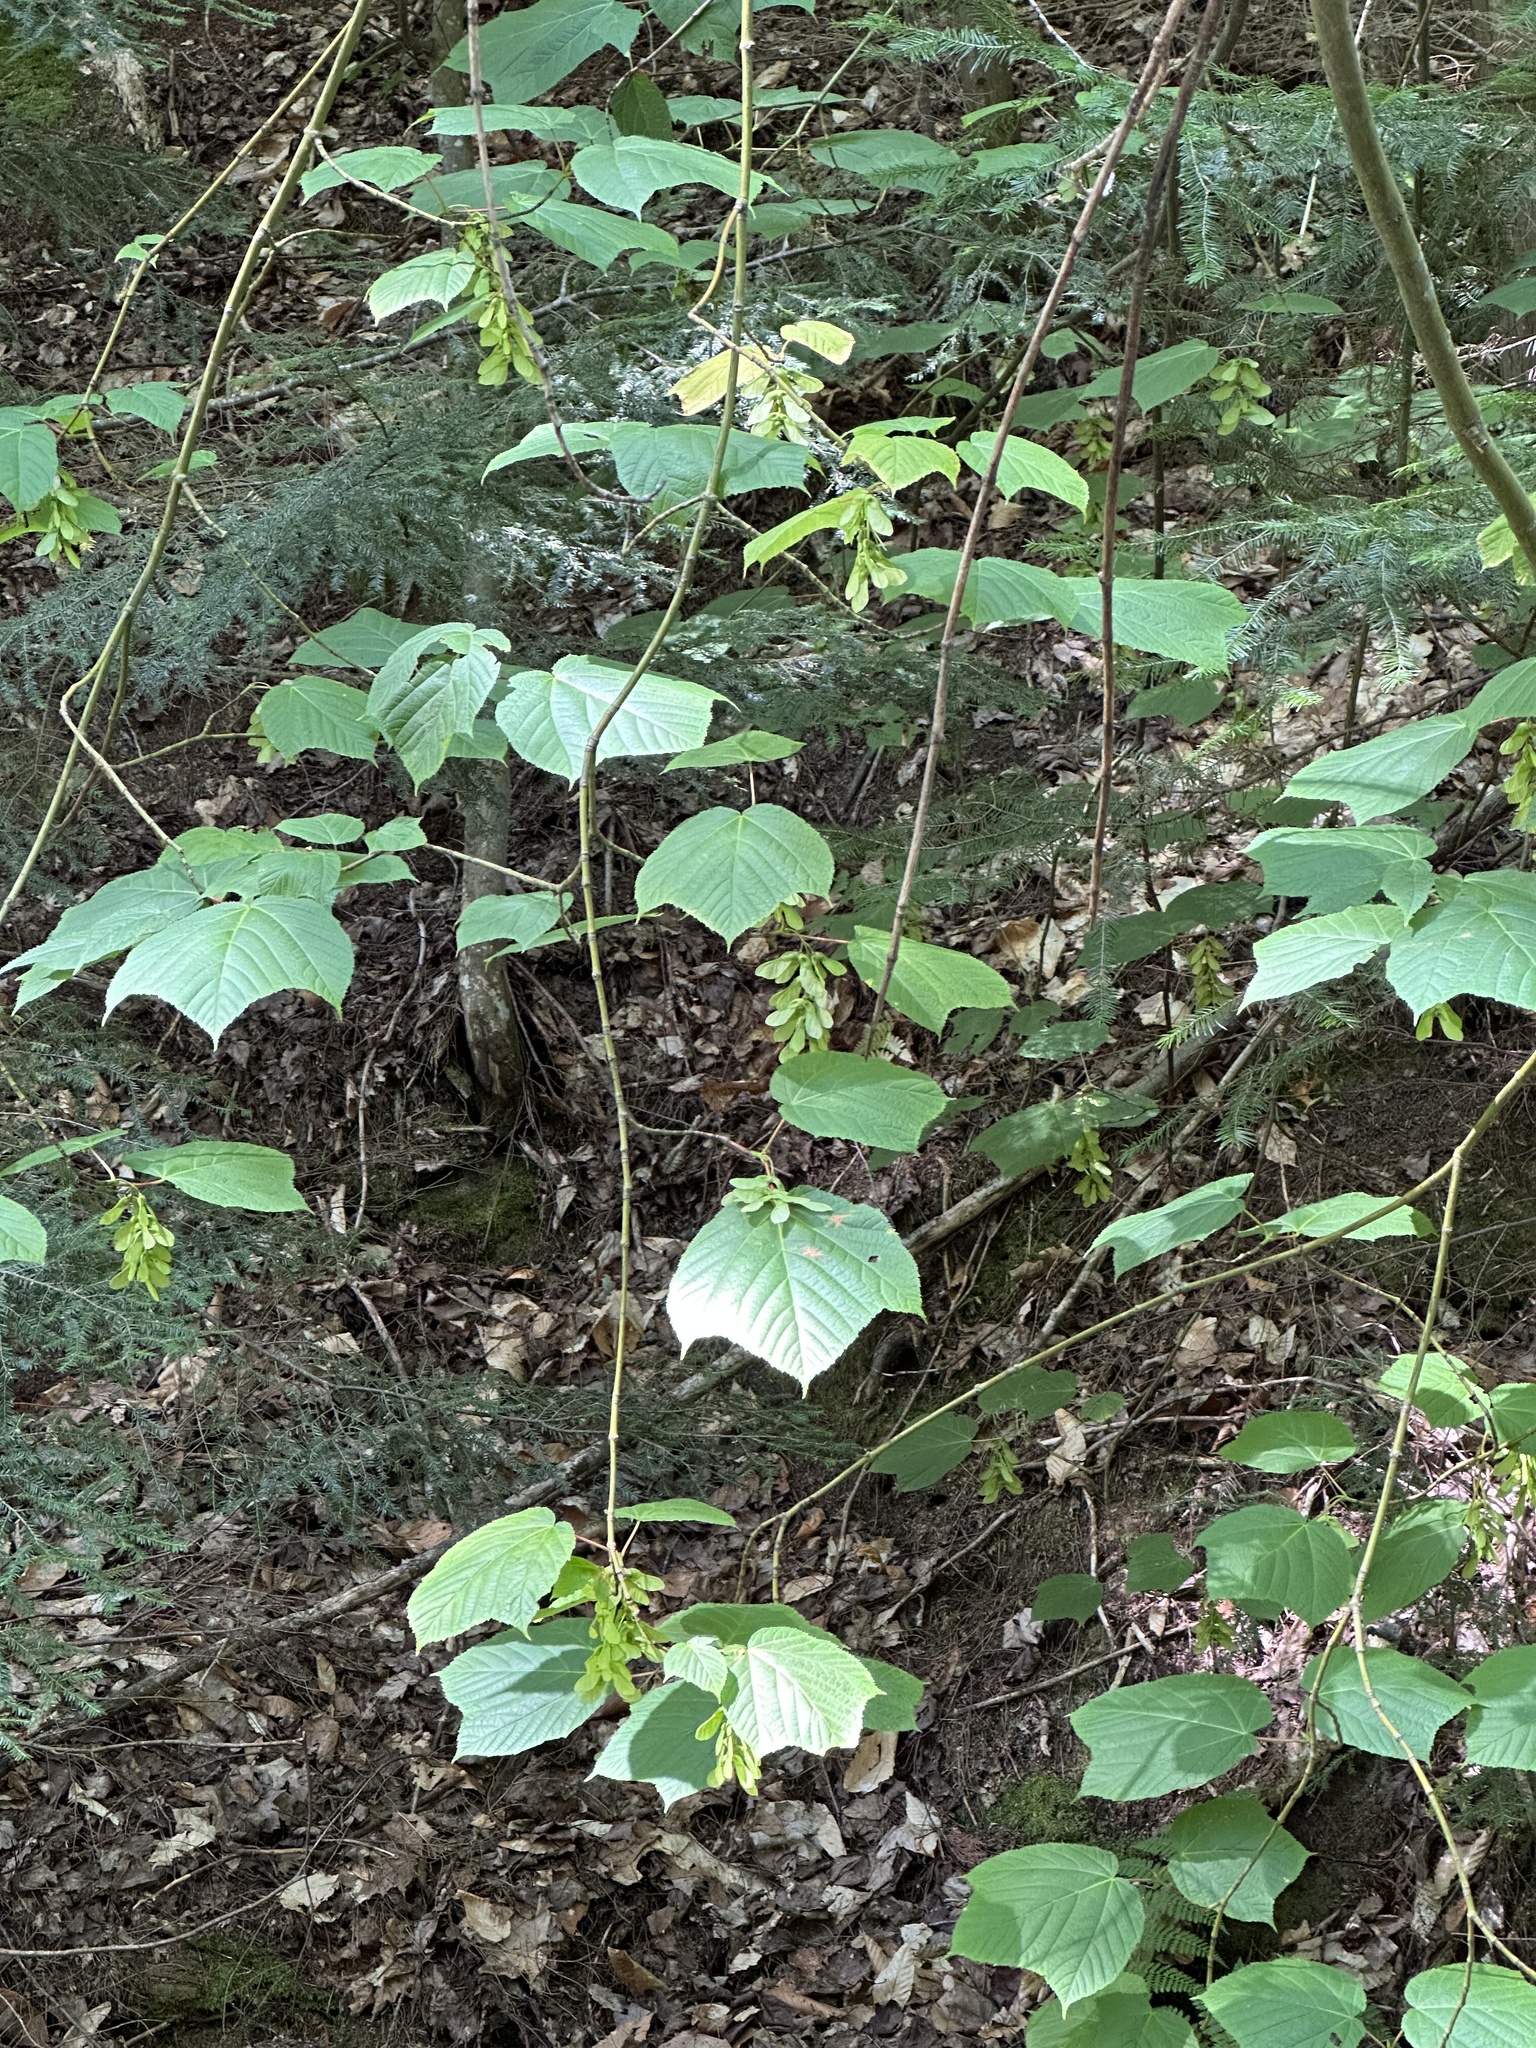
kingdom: Plantae
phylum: Tracheophyta
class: Magnoliopsida
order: Sapindales
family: Sapindaceae
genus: Acer
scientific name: Acer pensylvanicum
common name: Moosewood
